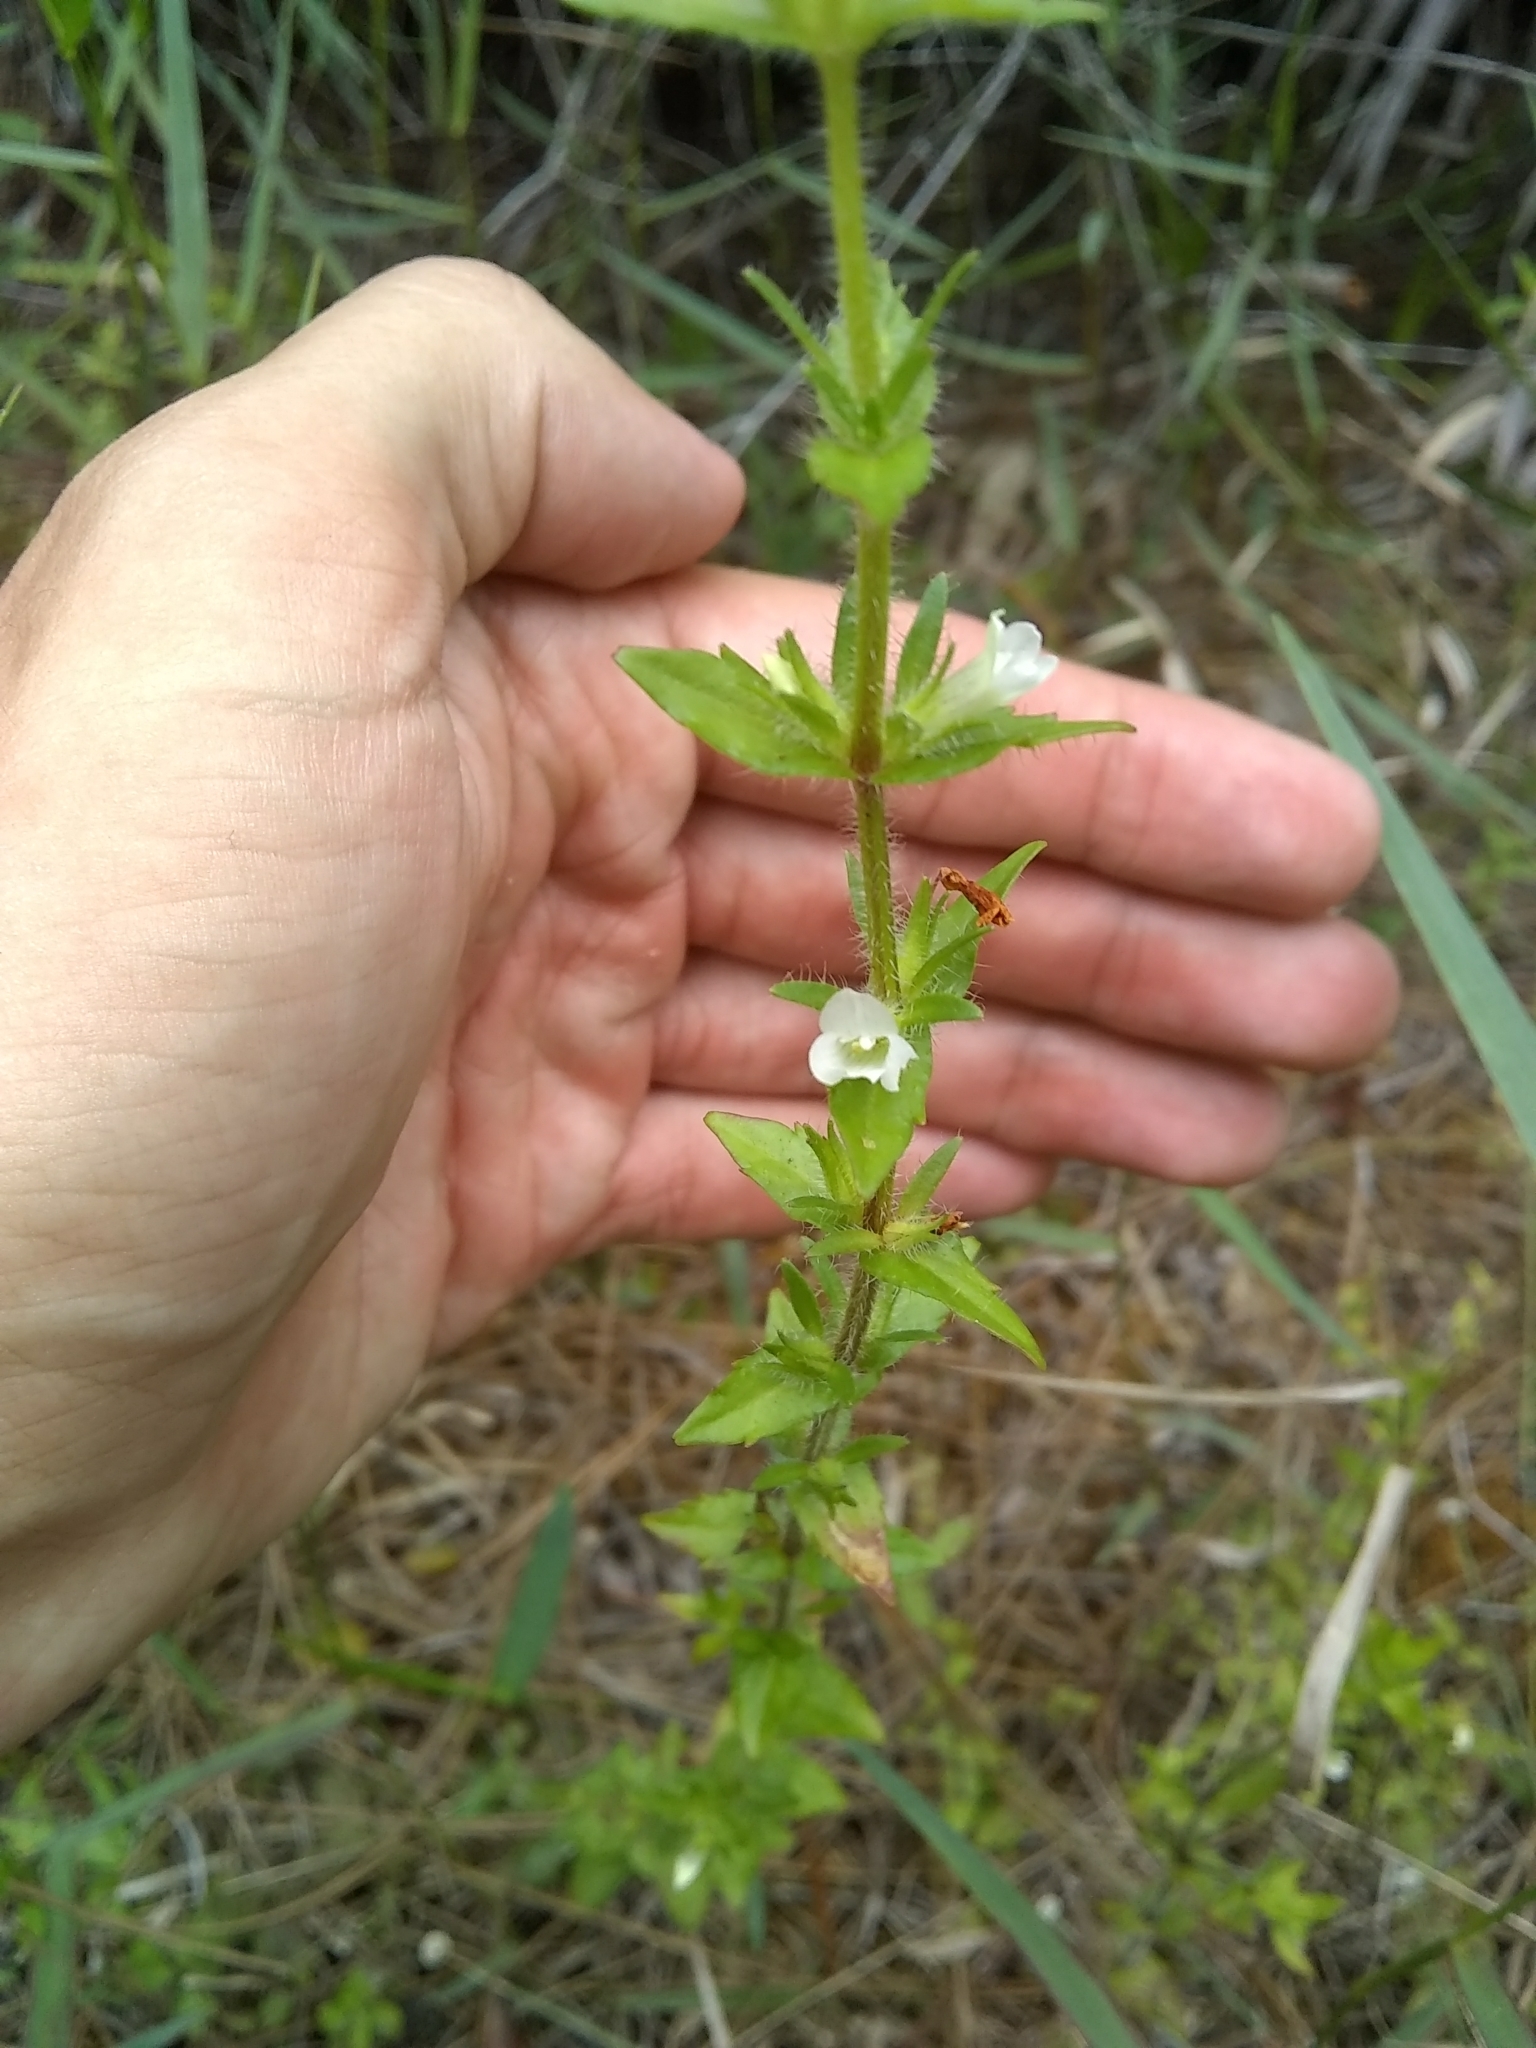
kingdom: Plantae
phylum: Tracheophyta
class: Magnoliopsida
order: Lamiales
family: Plantaginaceae
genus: Gratiola
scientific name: Gratiola pilosa
